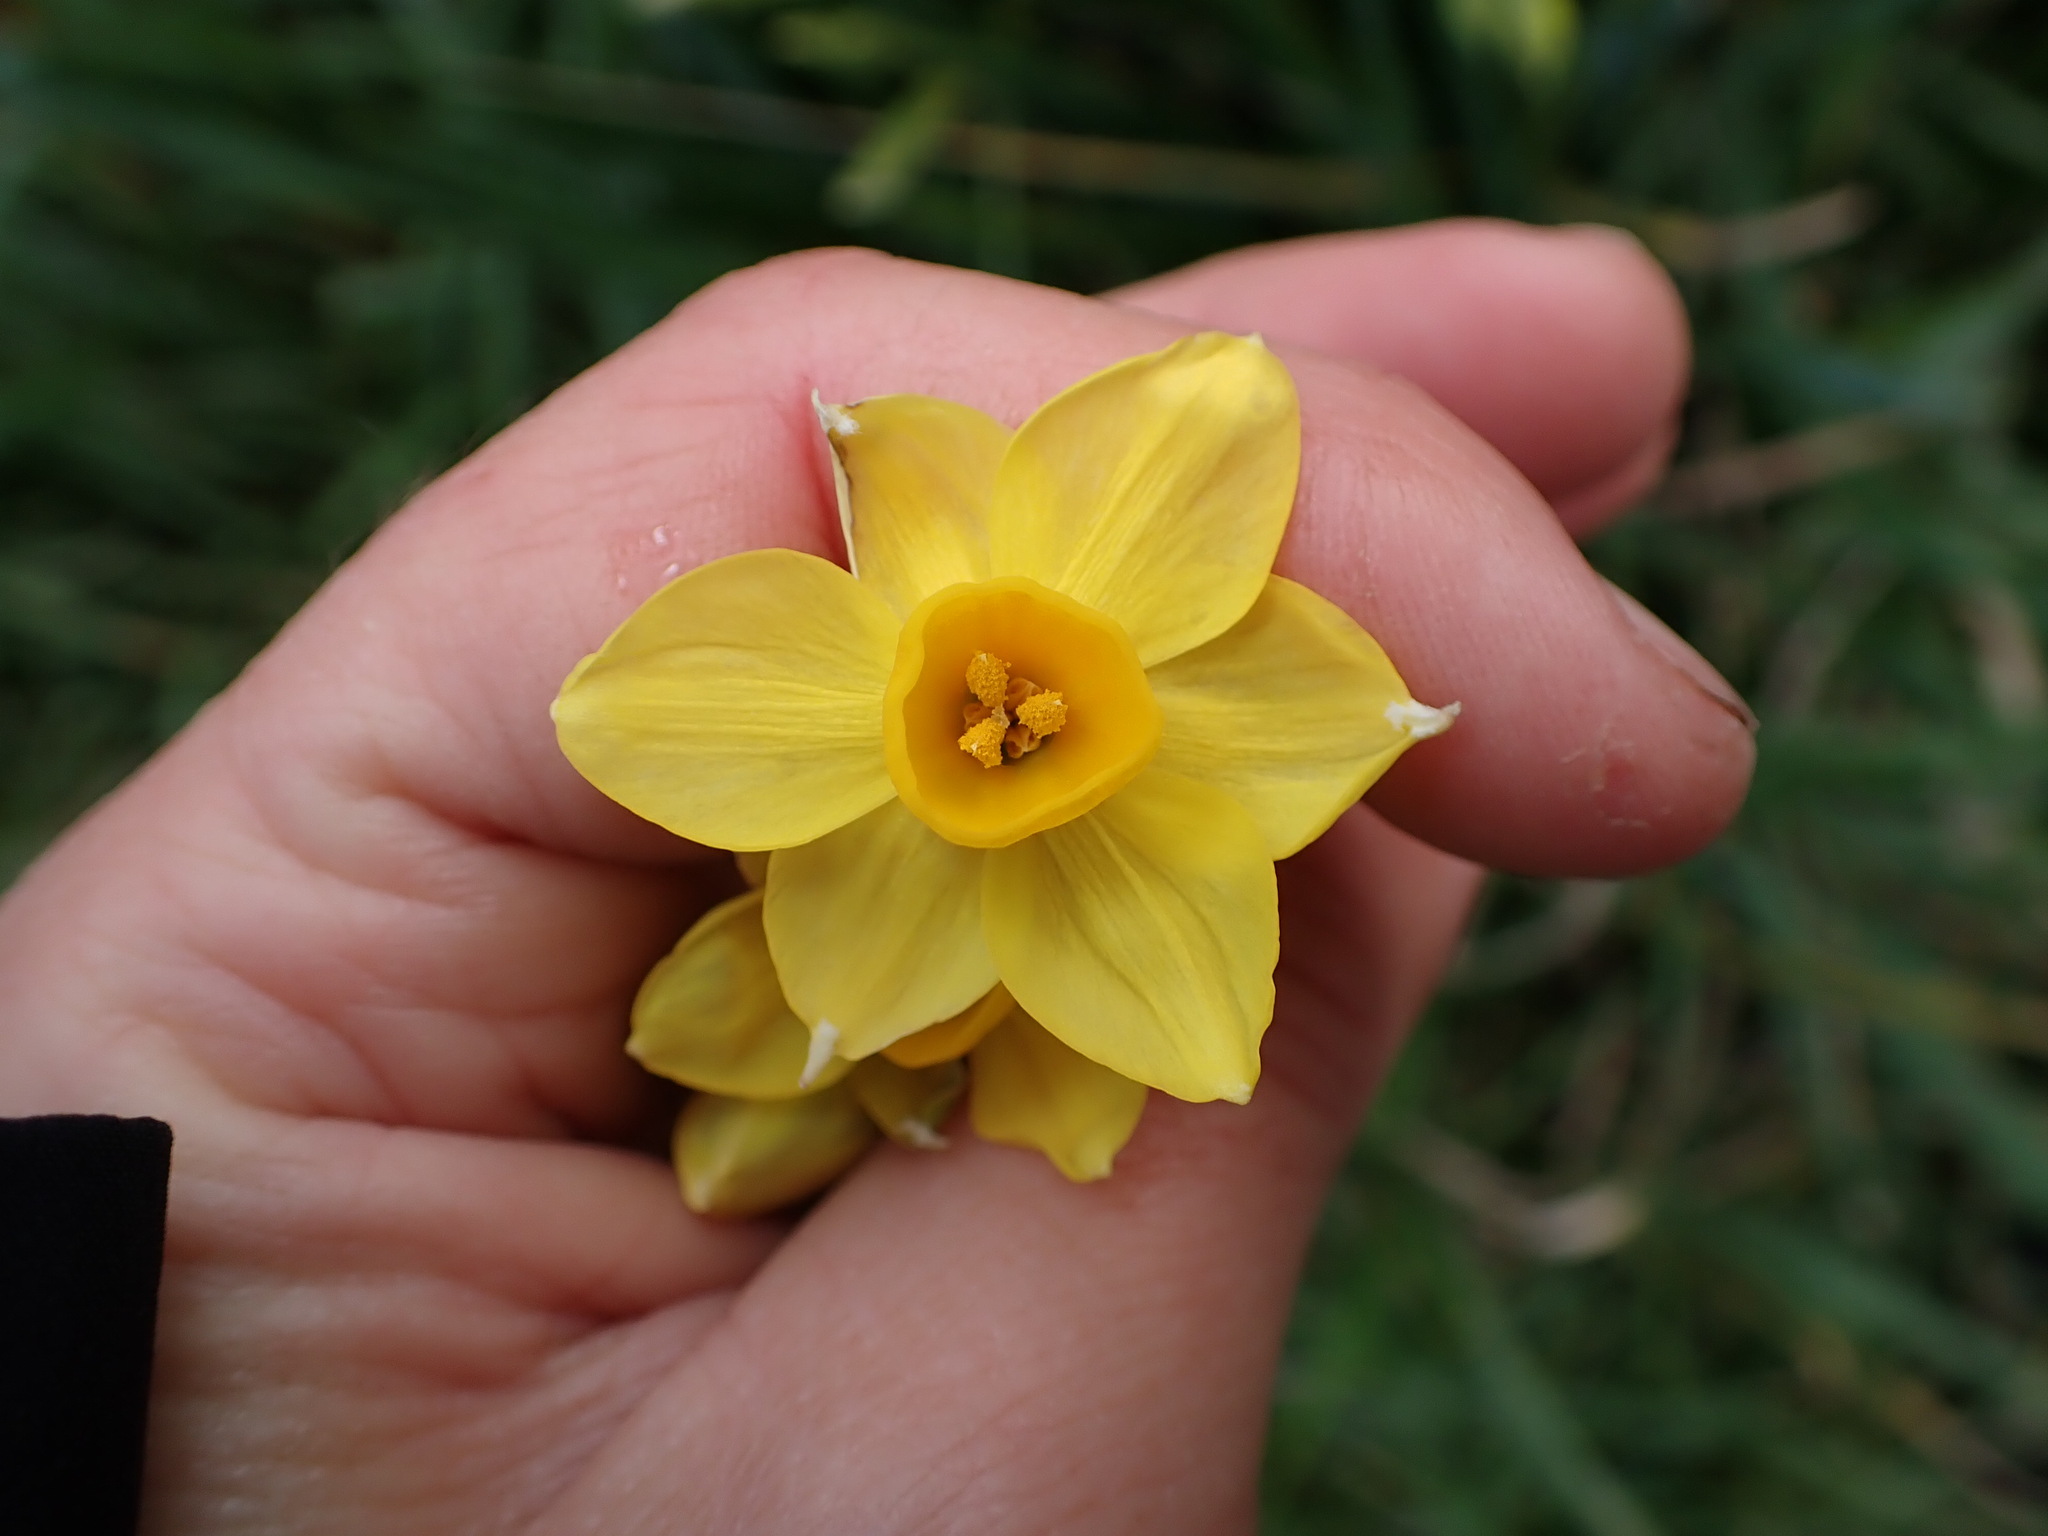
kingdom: Plantae
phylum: Tracheophyta
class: Liliopsida
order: Asparagales
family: Amaryllidaceae
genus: Narcissus
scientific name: Narcissus tazetta
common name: Bunch-flowered daffodil
